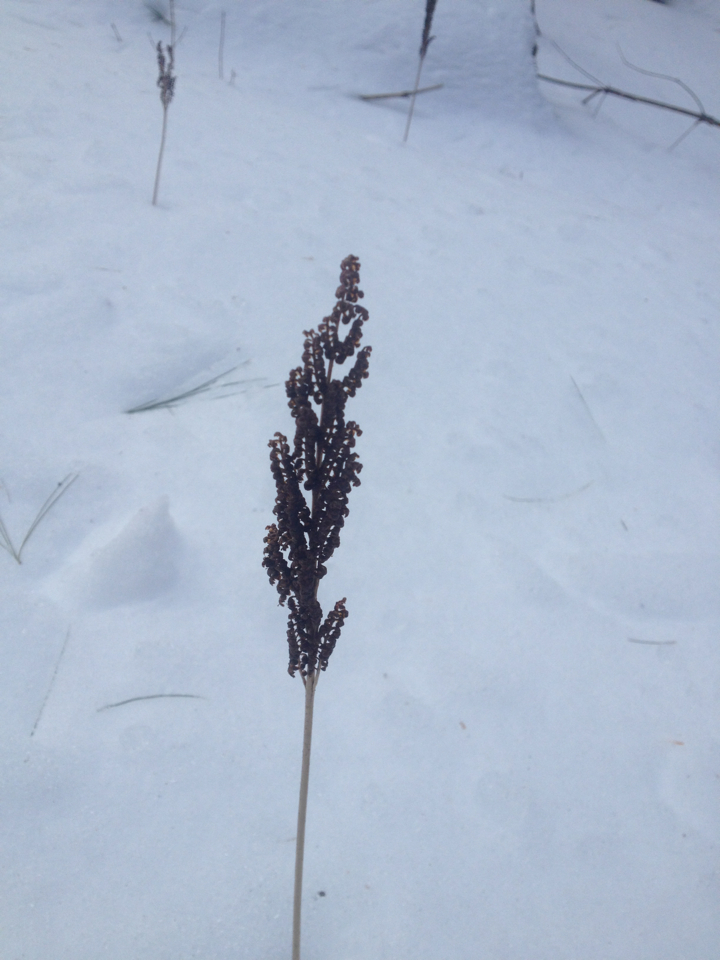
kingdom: Plantae
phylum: Tracheophyta
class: Polypodiopsida
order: Polypodiales
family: Onocleaceae
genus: Onoclea
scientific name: Onoclea sensibilis
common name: Sensitive fern
